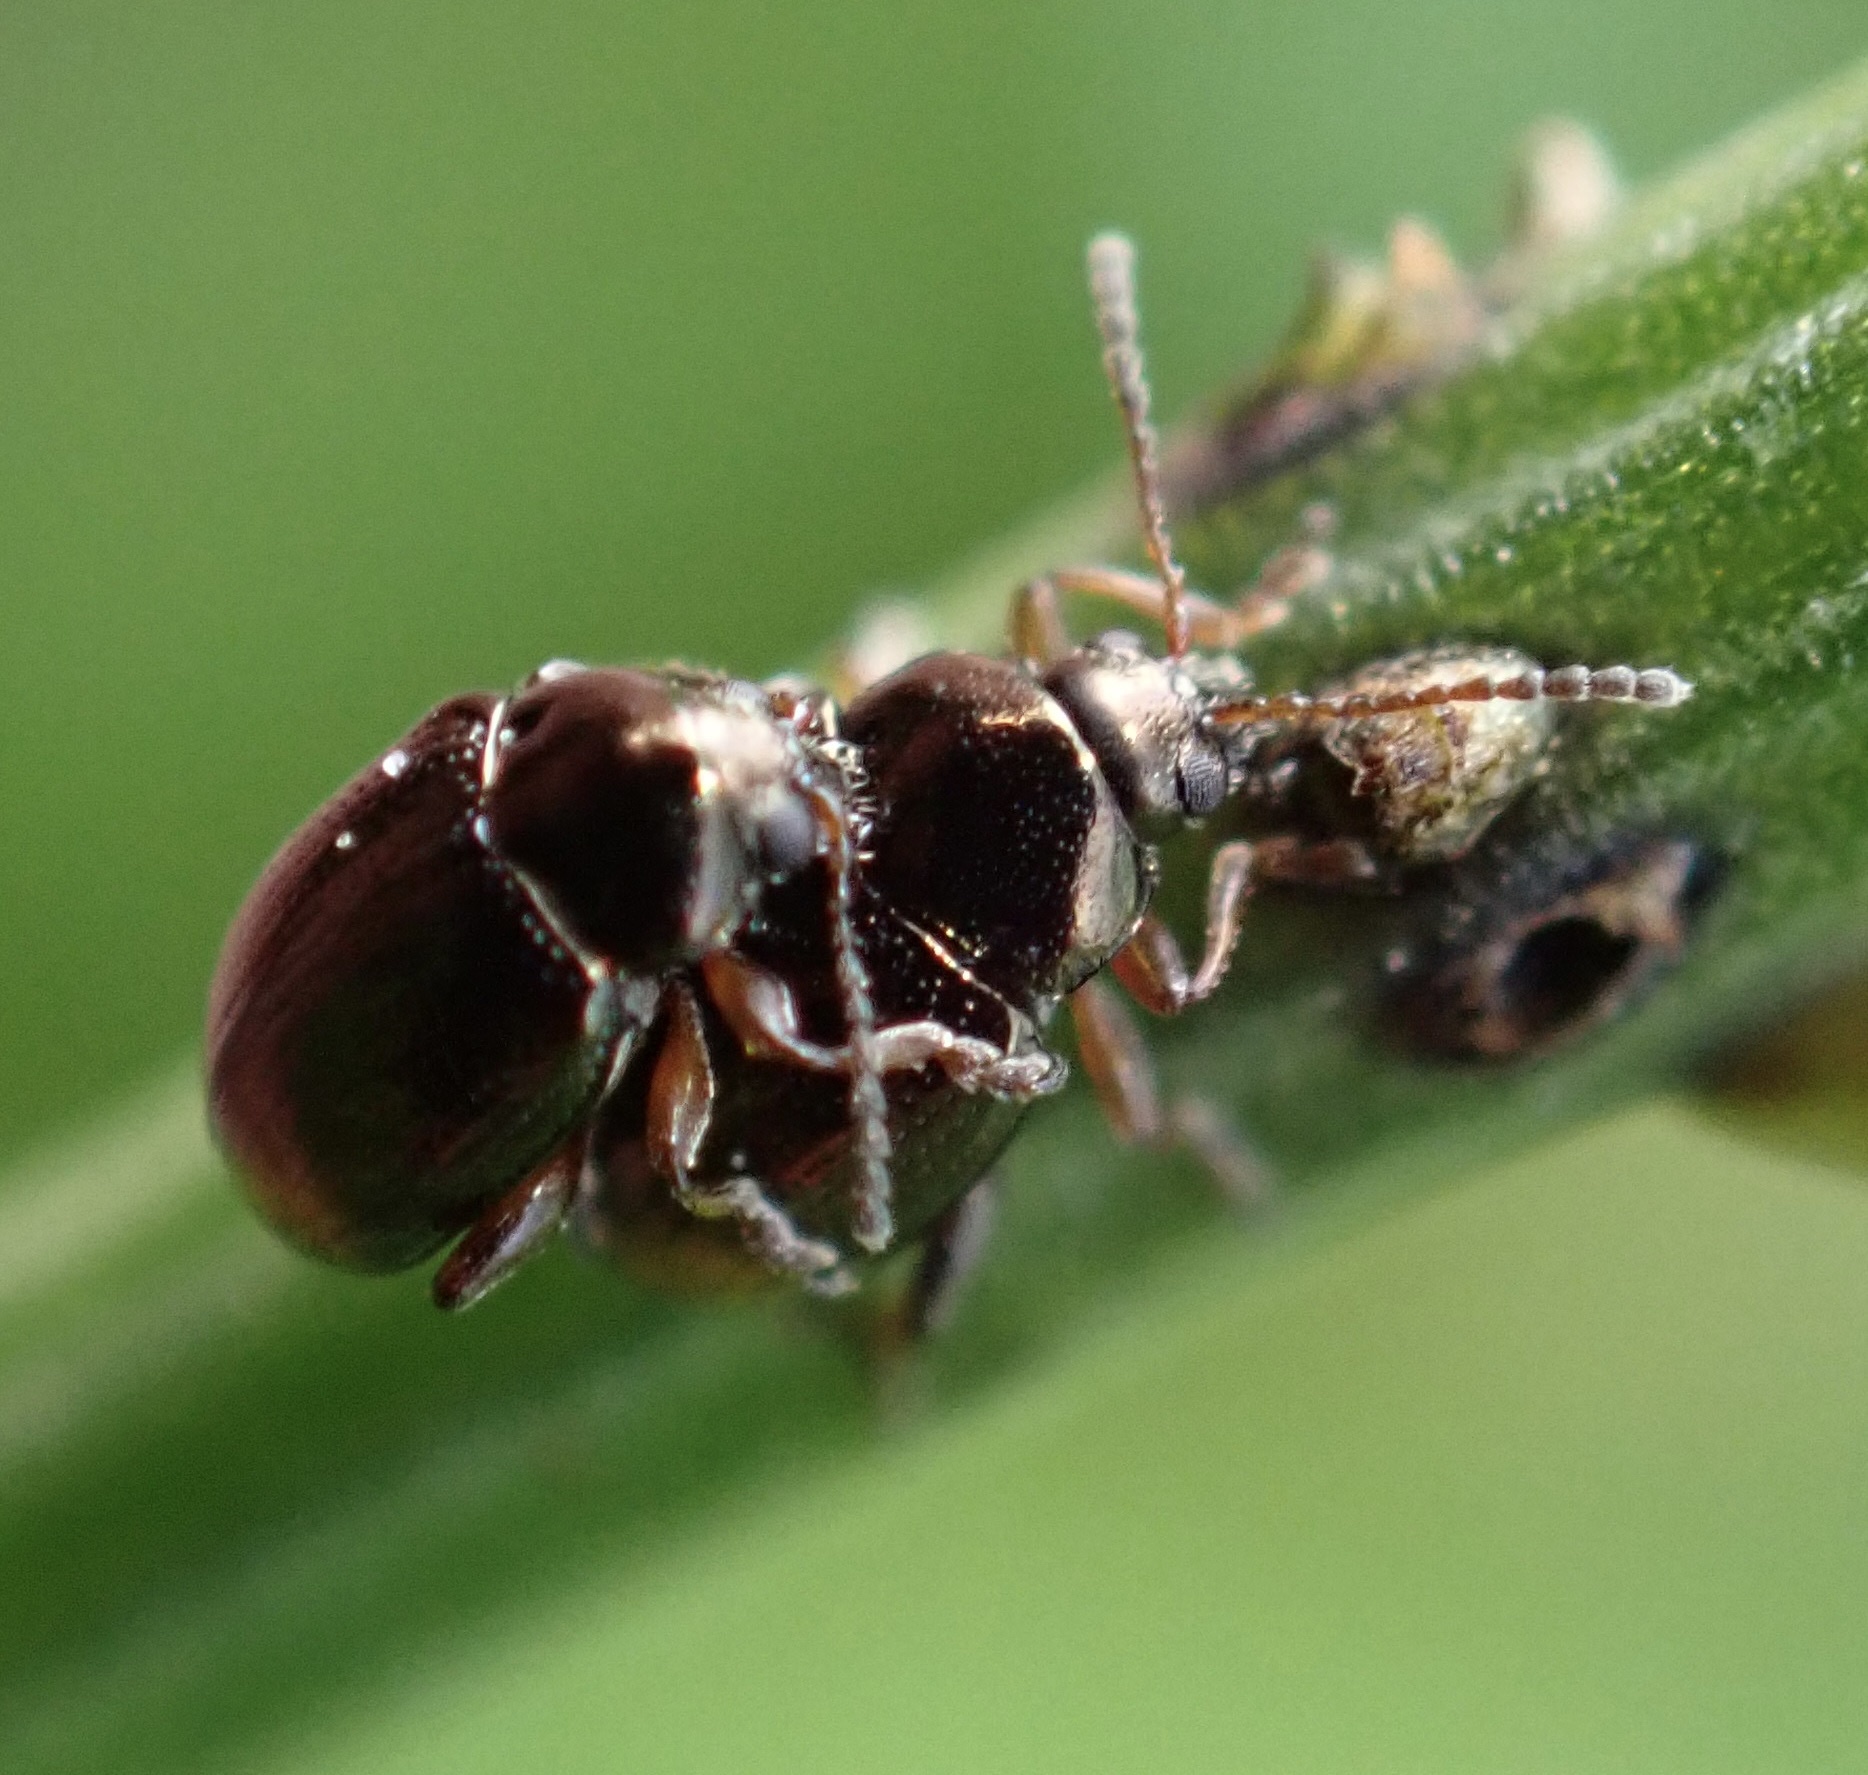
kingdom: Animalia
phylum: Arthropoda
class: Insecta
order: Coleoptera
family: Chrysomelidae
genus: Hippuriphila
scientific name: Hippuriphila modeeri
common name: Horsetail flea beetle
